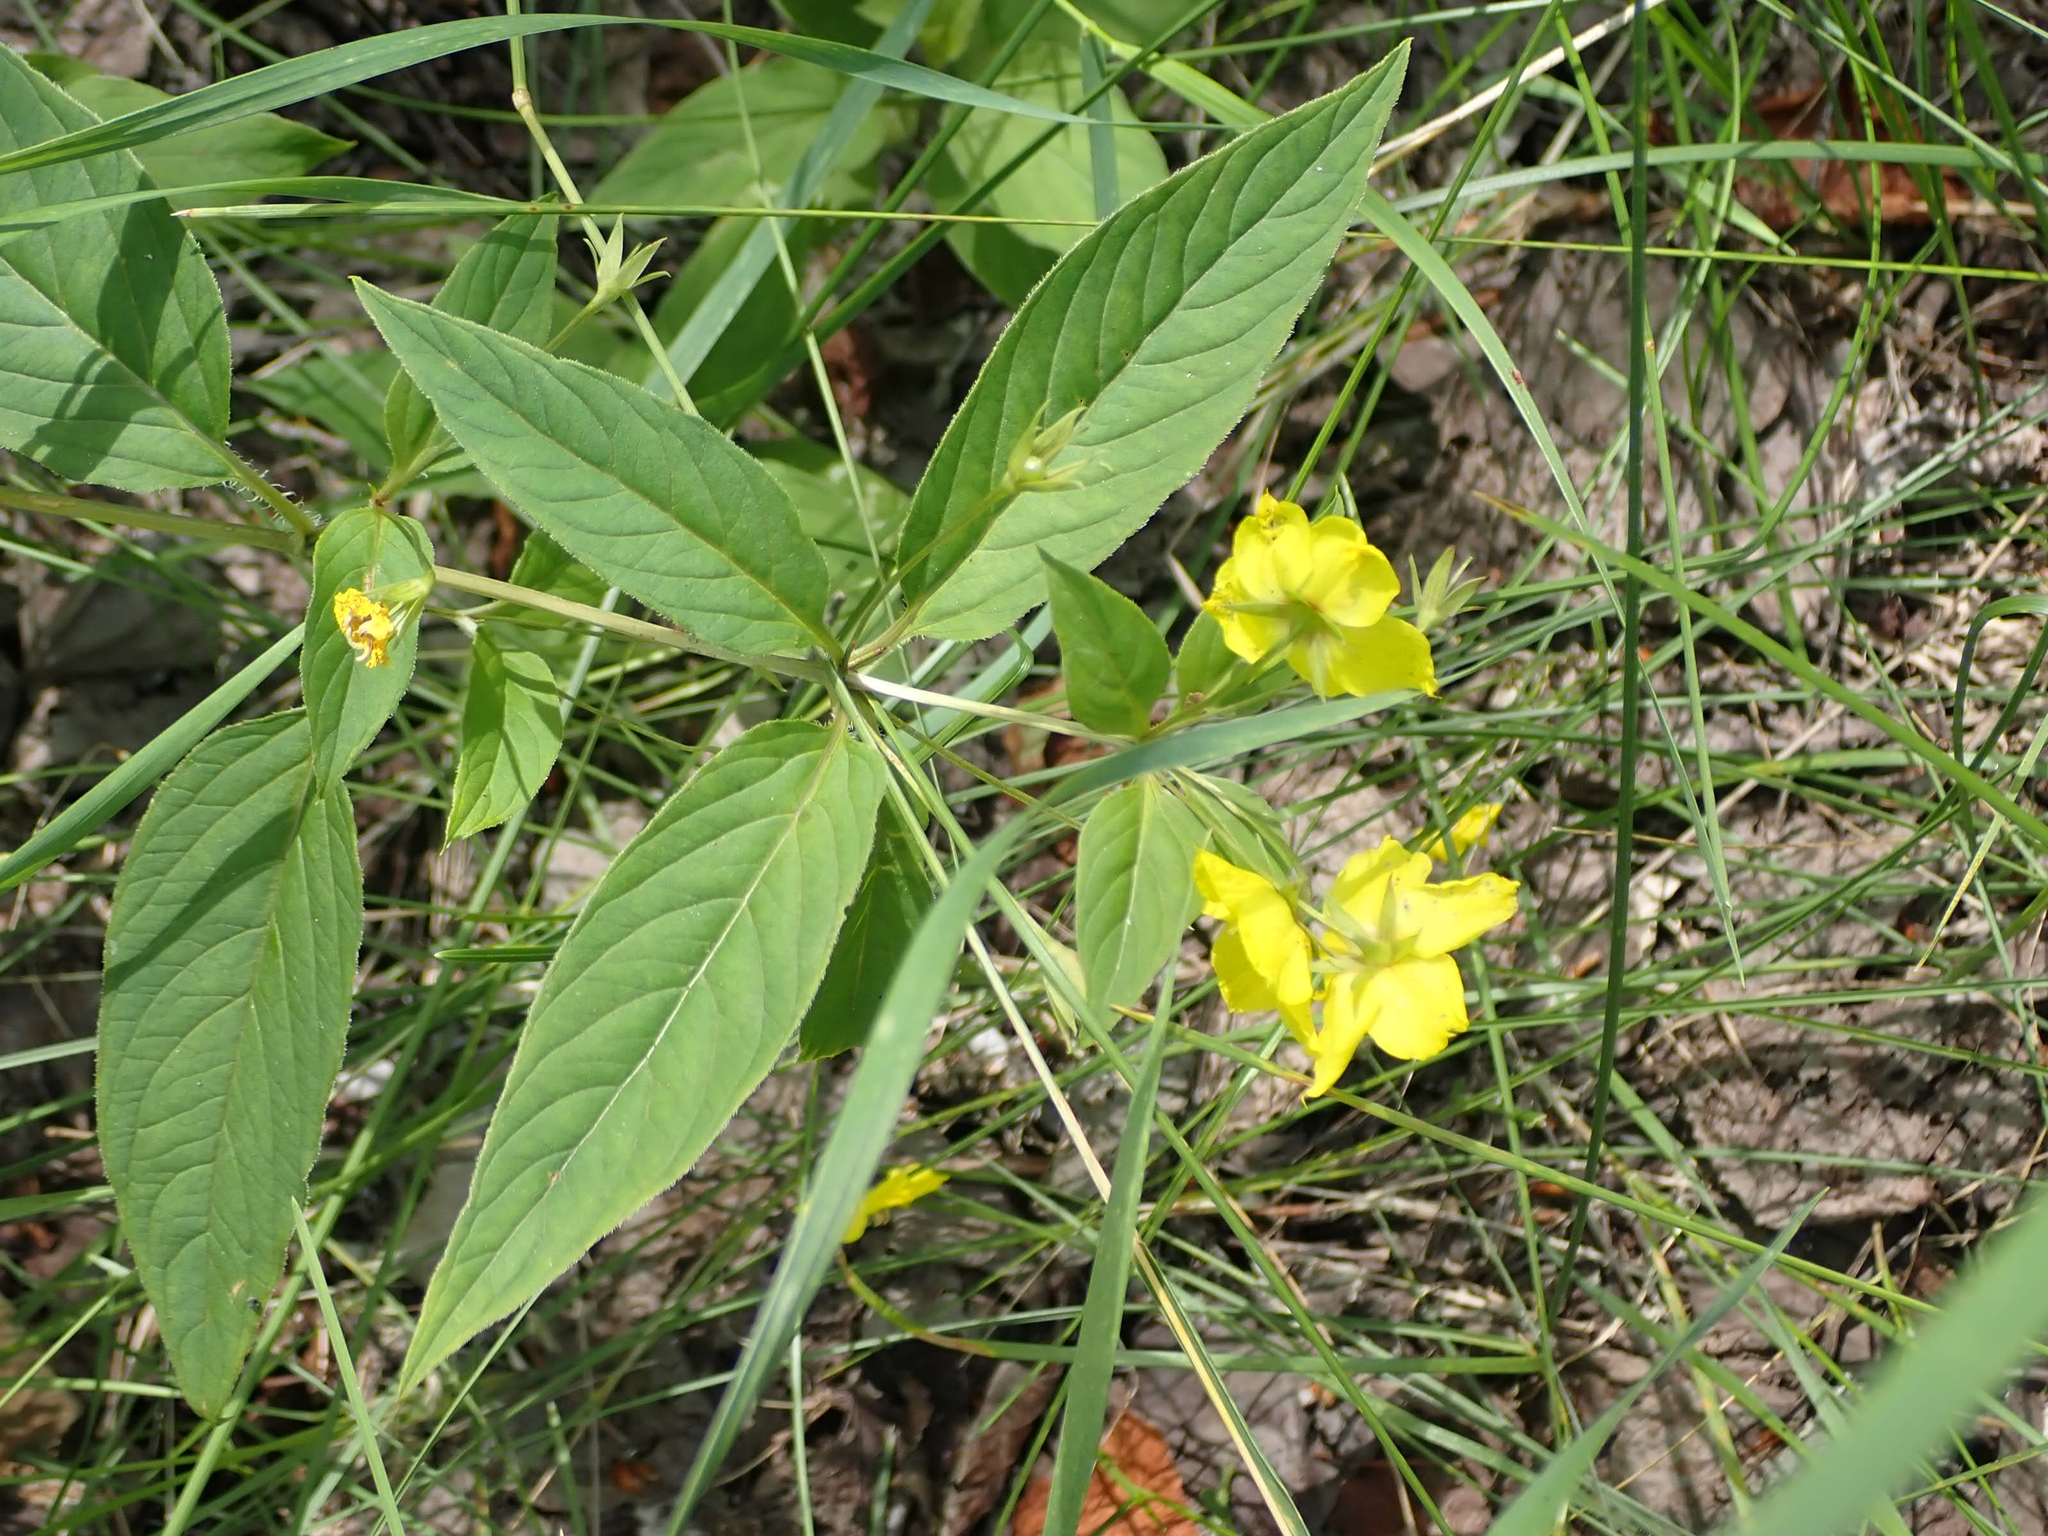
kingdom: Plantae
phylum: Tracheophyta
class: Magnoliopsida
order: Ericales
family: Primulaceae
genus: Lysimachia
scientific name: Lysimachia ciliata
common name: Fringed loosestrife
